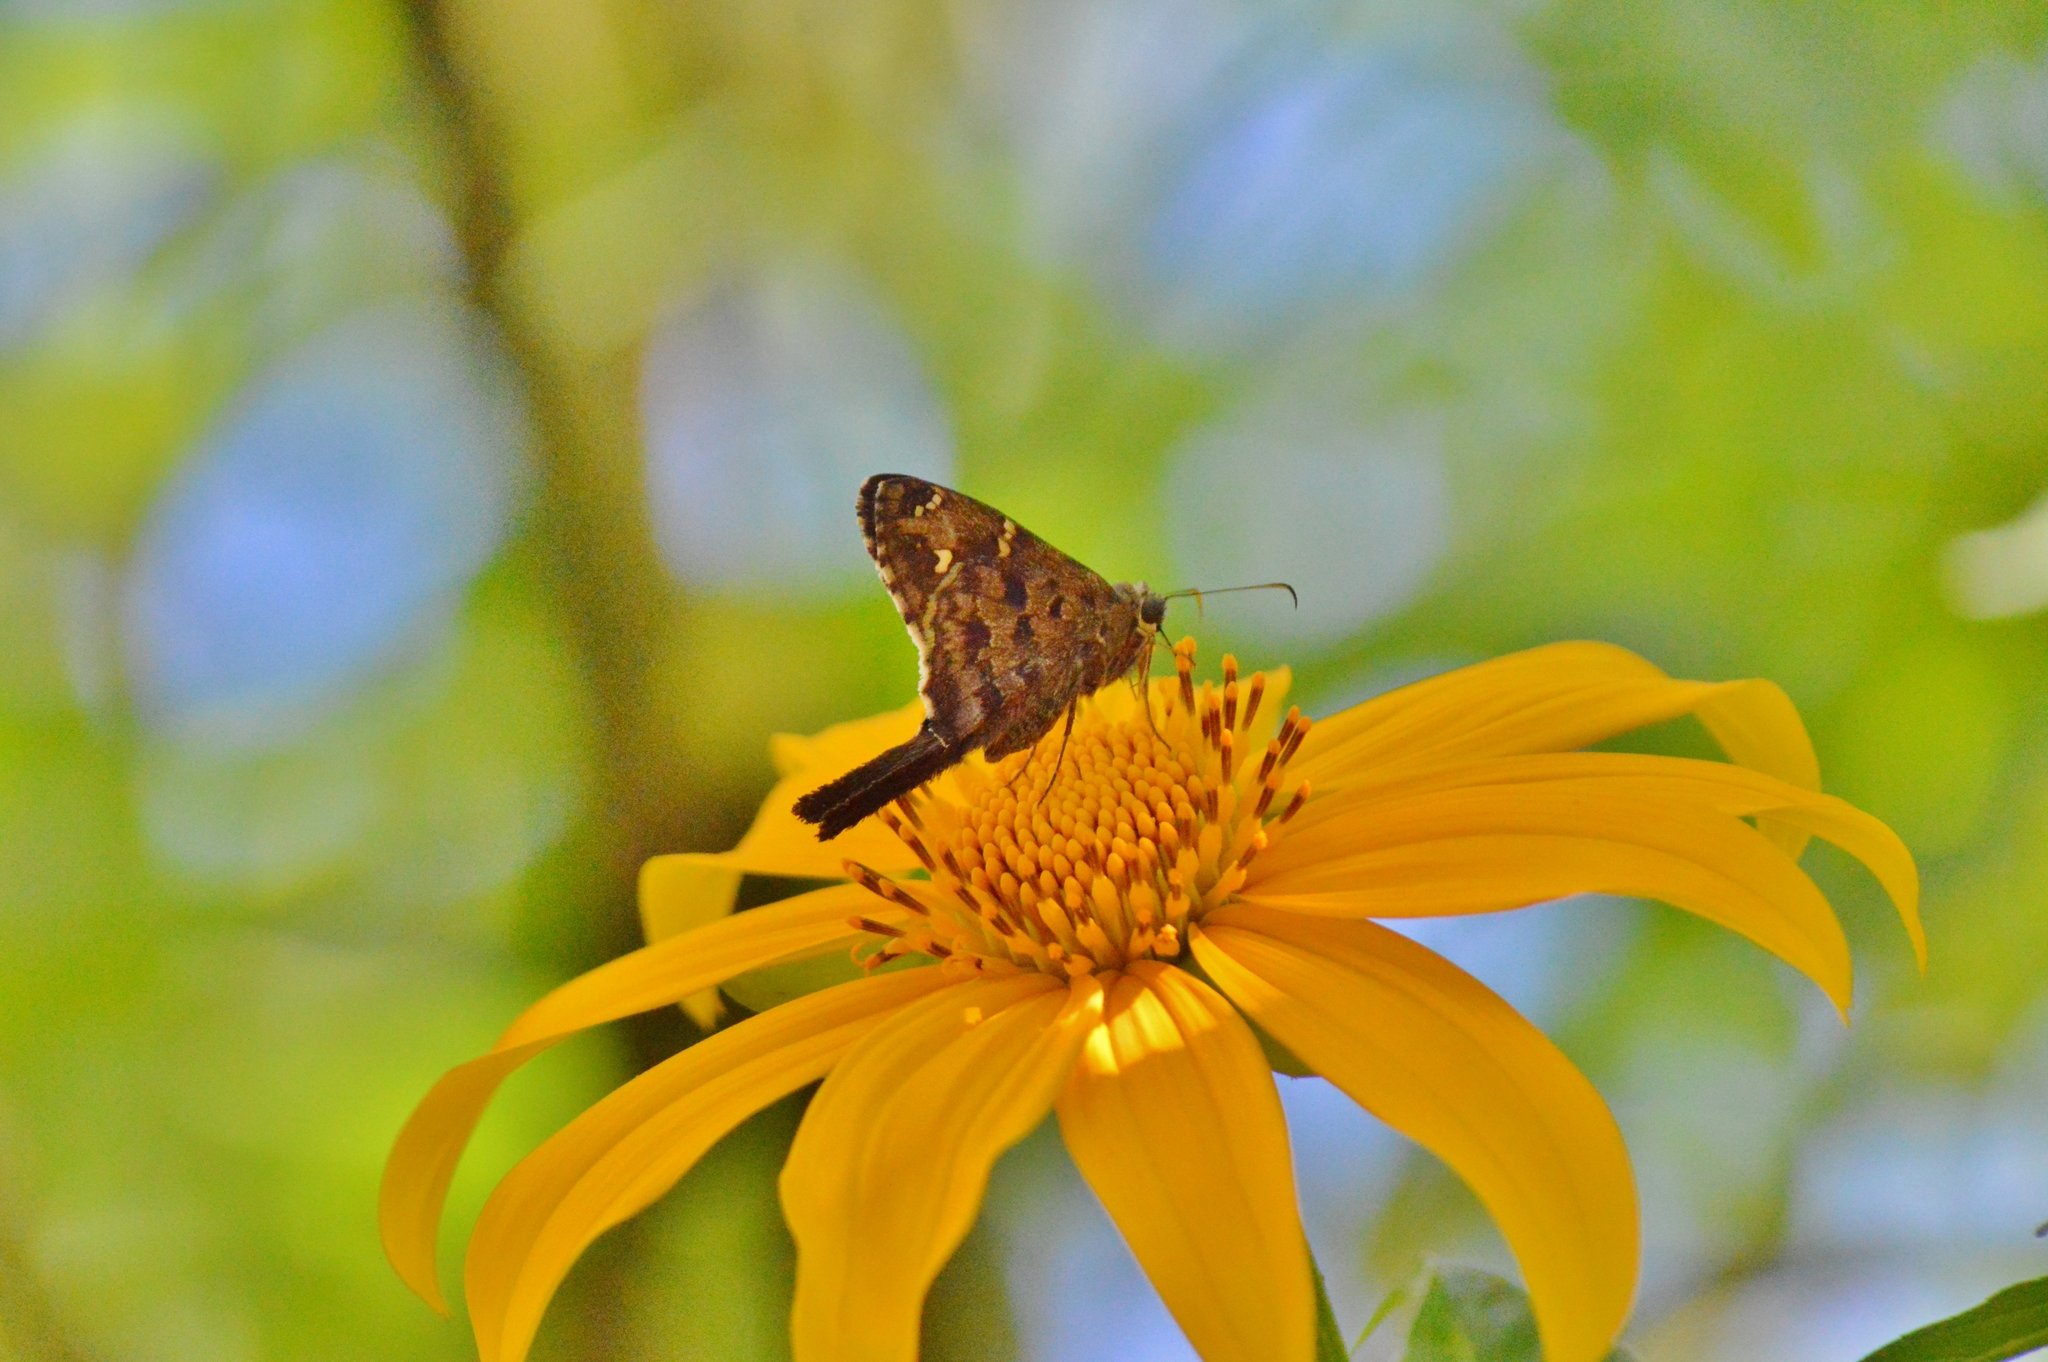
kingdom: Animalia
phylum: Arthropoda
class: Insecta
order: Lepidoptera
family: Hesperiidae
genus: Thorybes
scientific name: Thorybes
